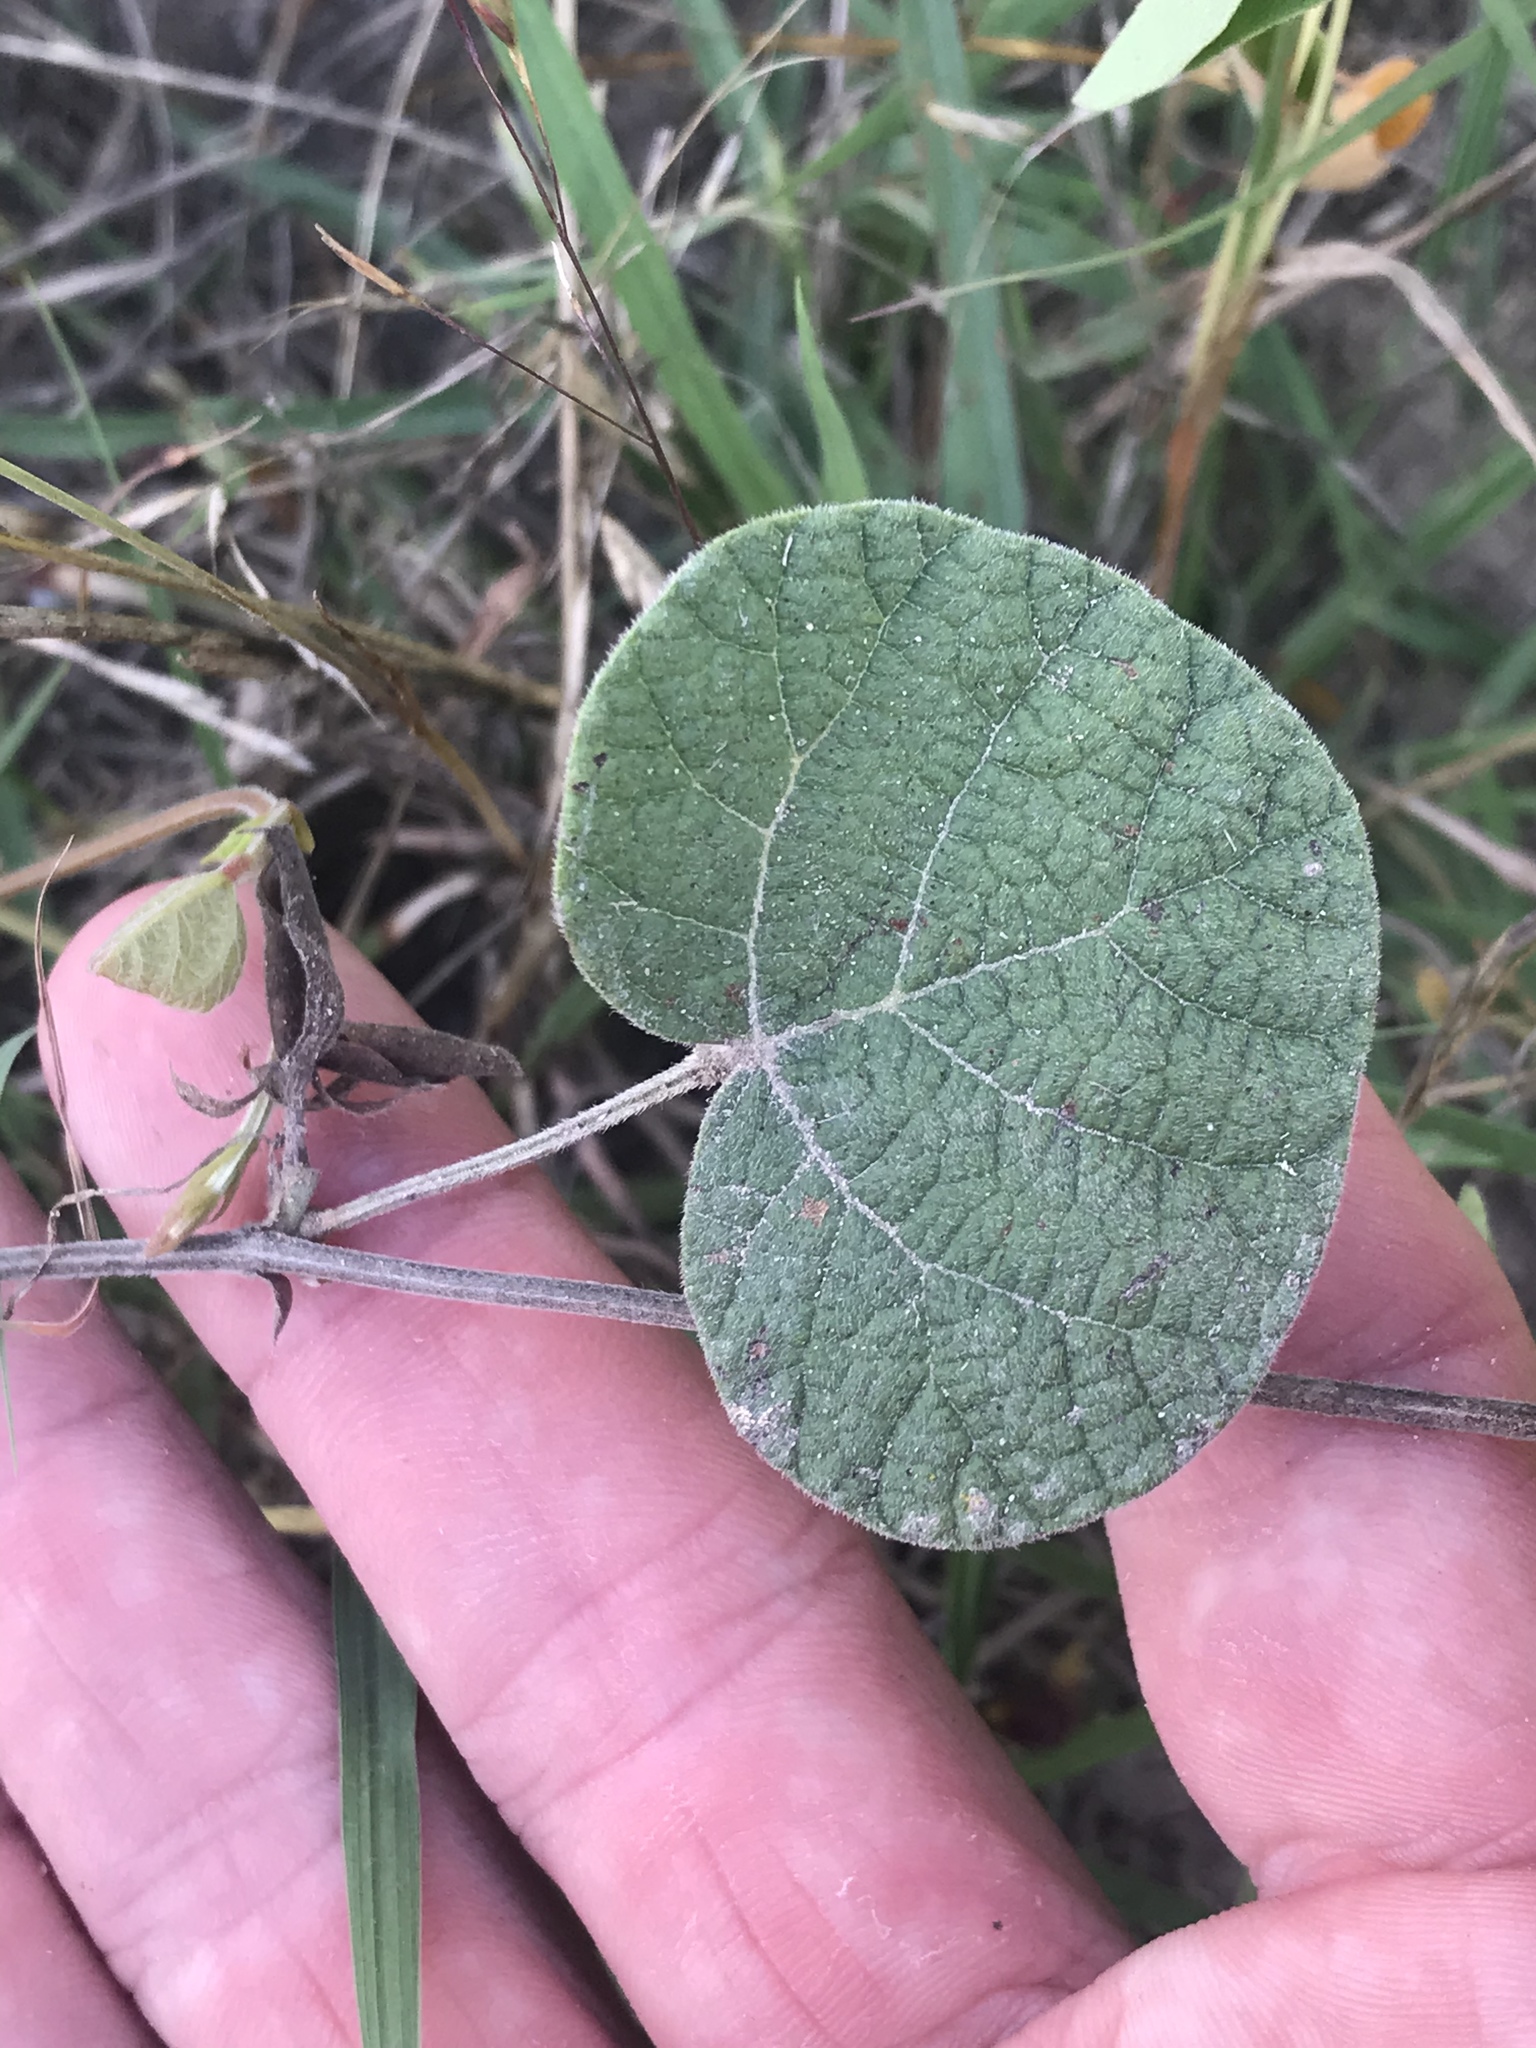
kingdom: Plantae
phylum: Tracheophyta
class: Magnoliopsida
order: Fabales
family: Fabaceae
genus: Rhynchosia
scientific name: Rhynchosia americana
